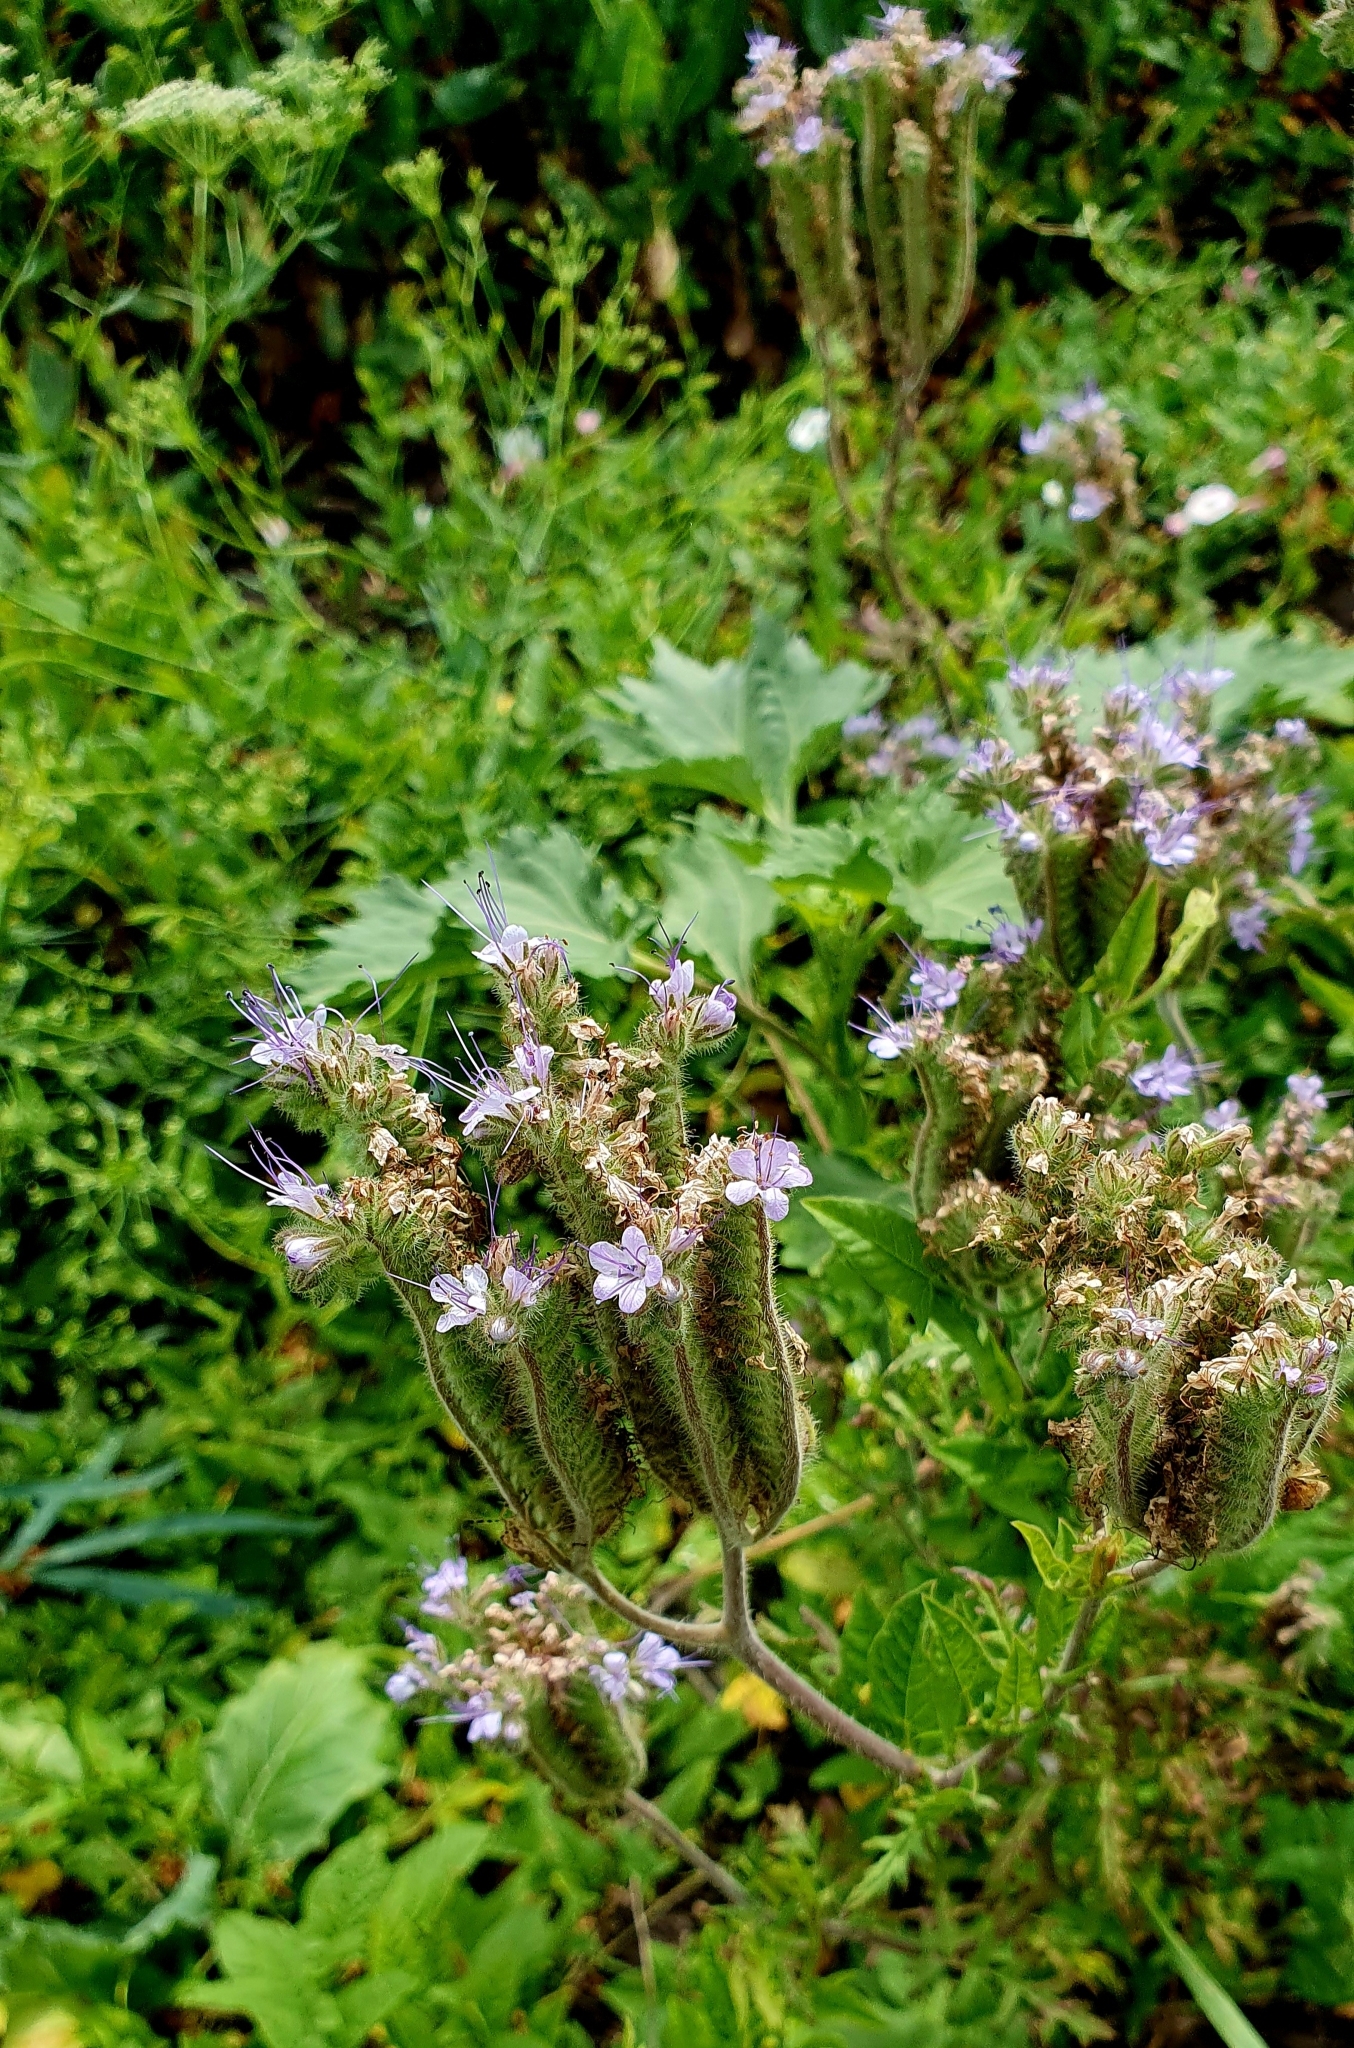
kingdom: Plantae
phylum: Tracheophyta
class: Magnoliopsida
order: Boraginales
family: Hydrophyllaceae
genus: Phacelia
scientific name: Phacelia tanacetifolia
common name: Phacelia
